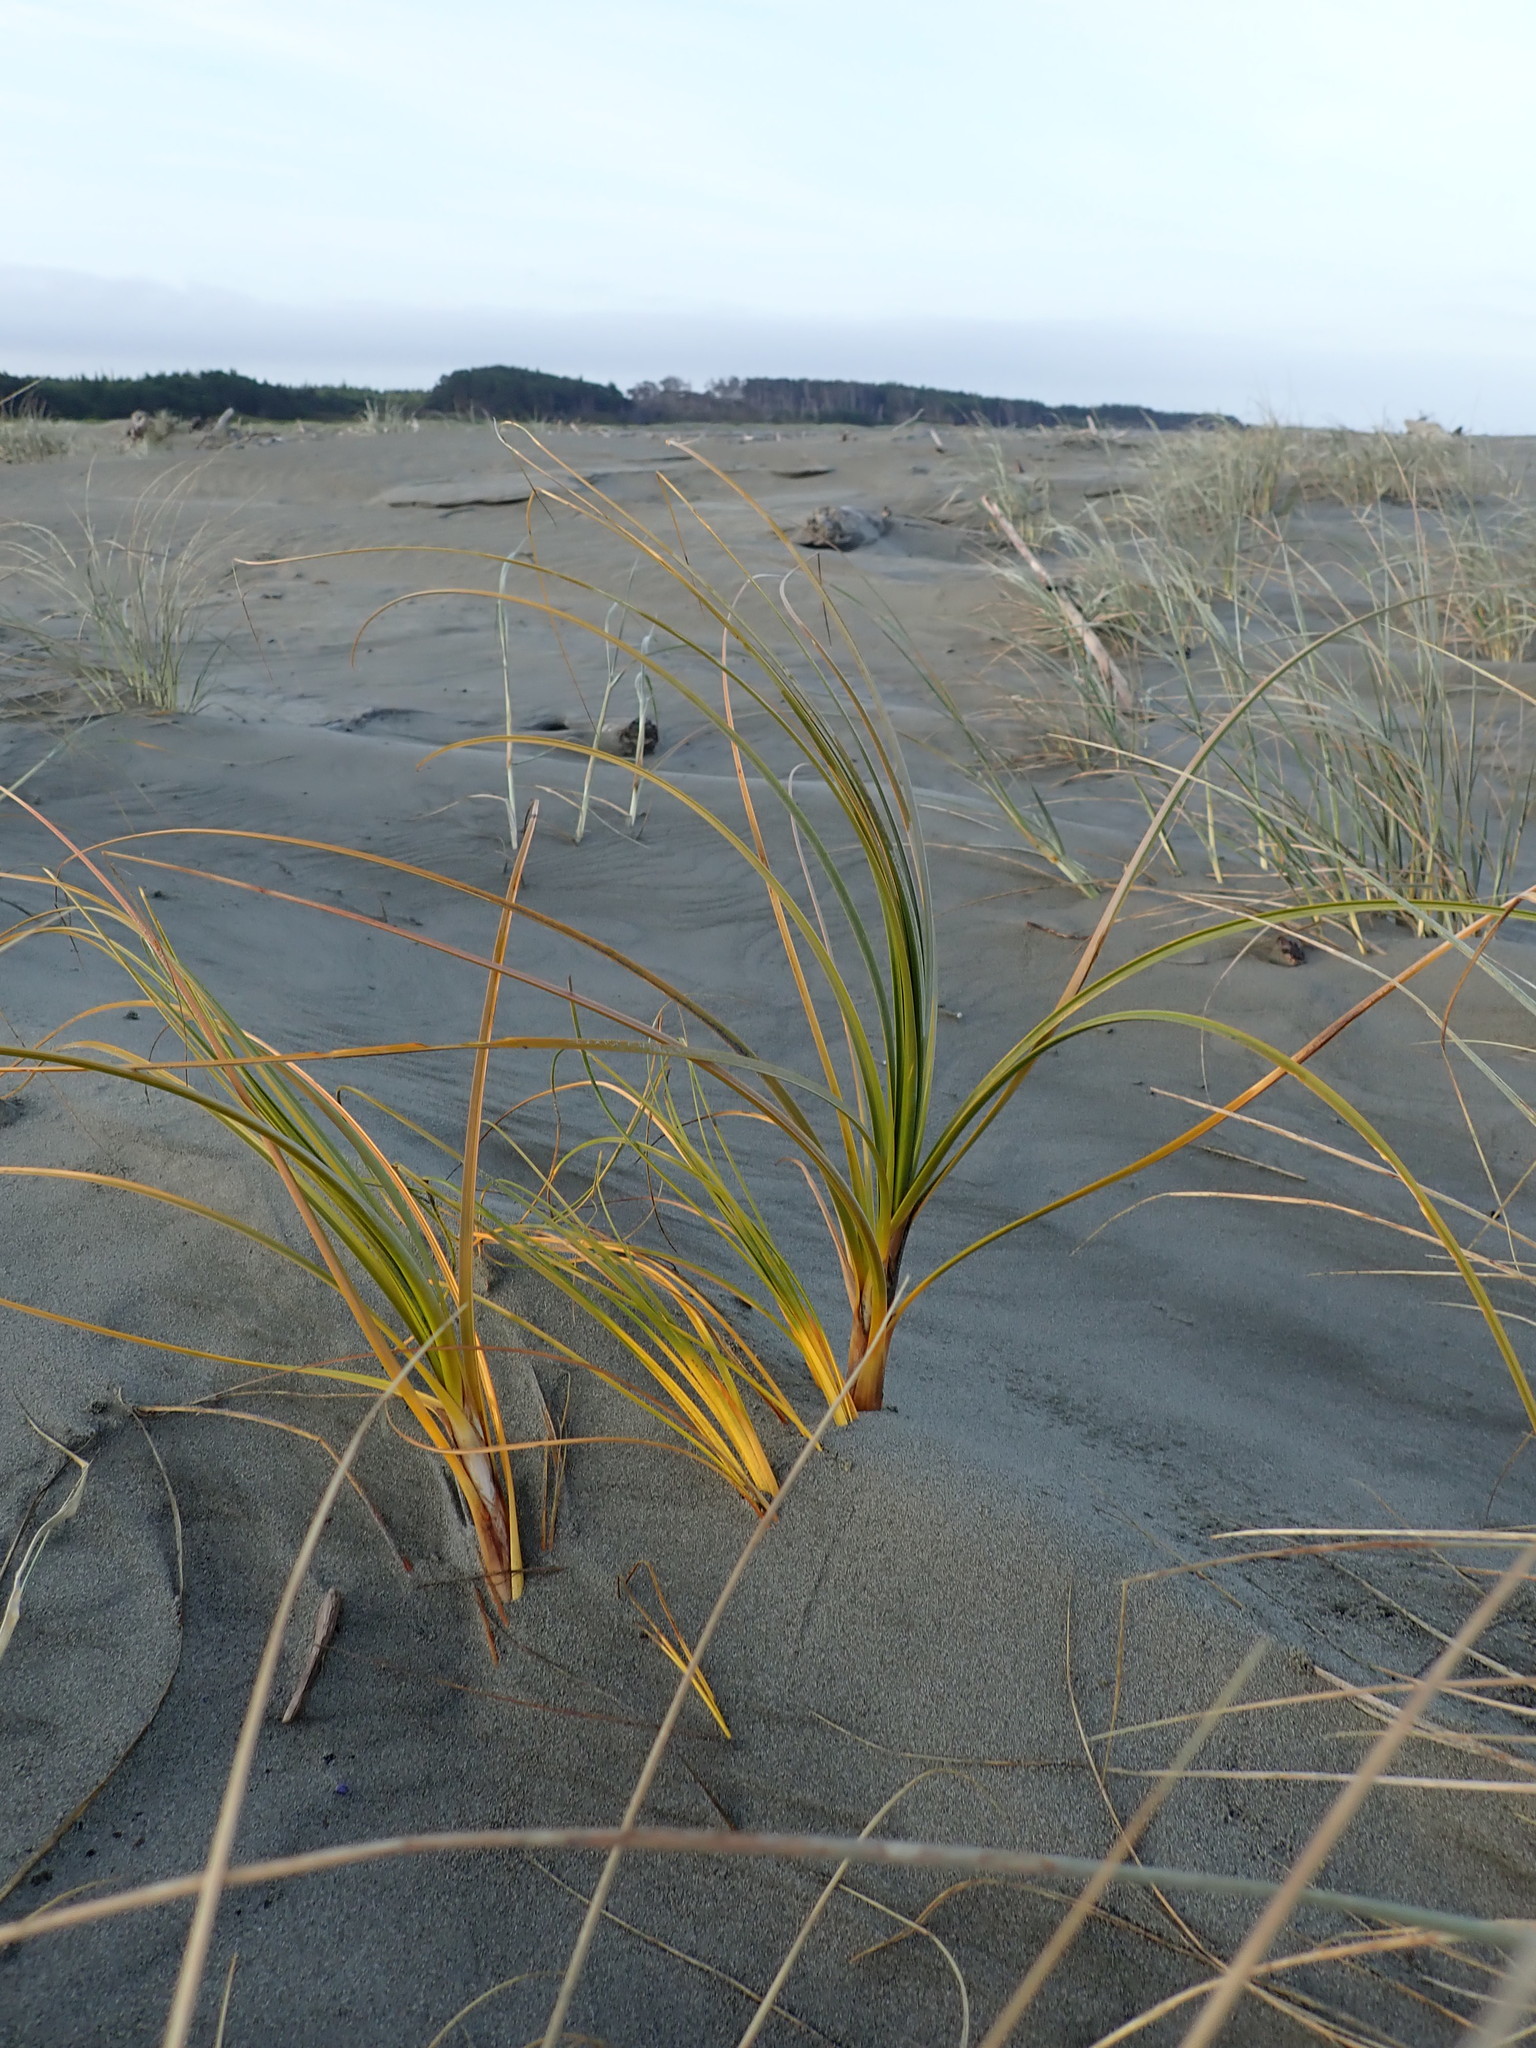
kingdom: Plantae
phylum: Tracheophyta
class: Liliopsida
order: Poales
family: Cyperaceae
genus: Ficinia
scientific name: Ficinia spiralis
